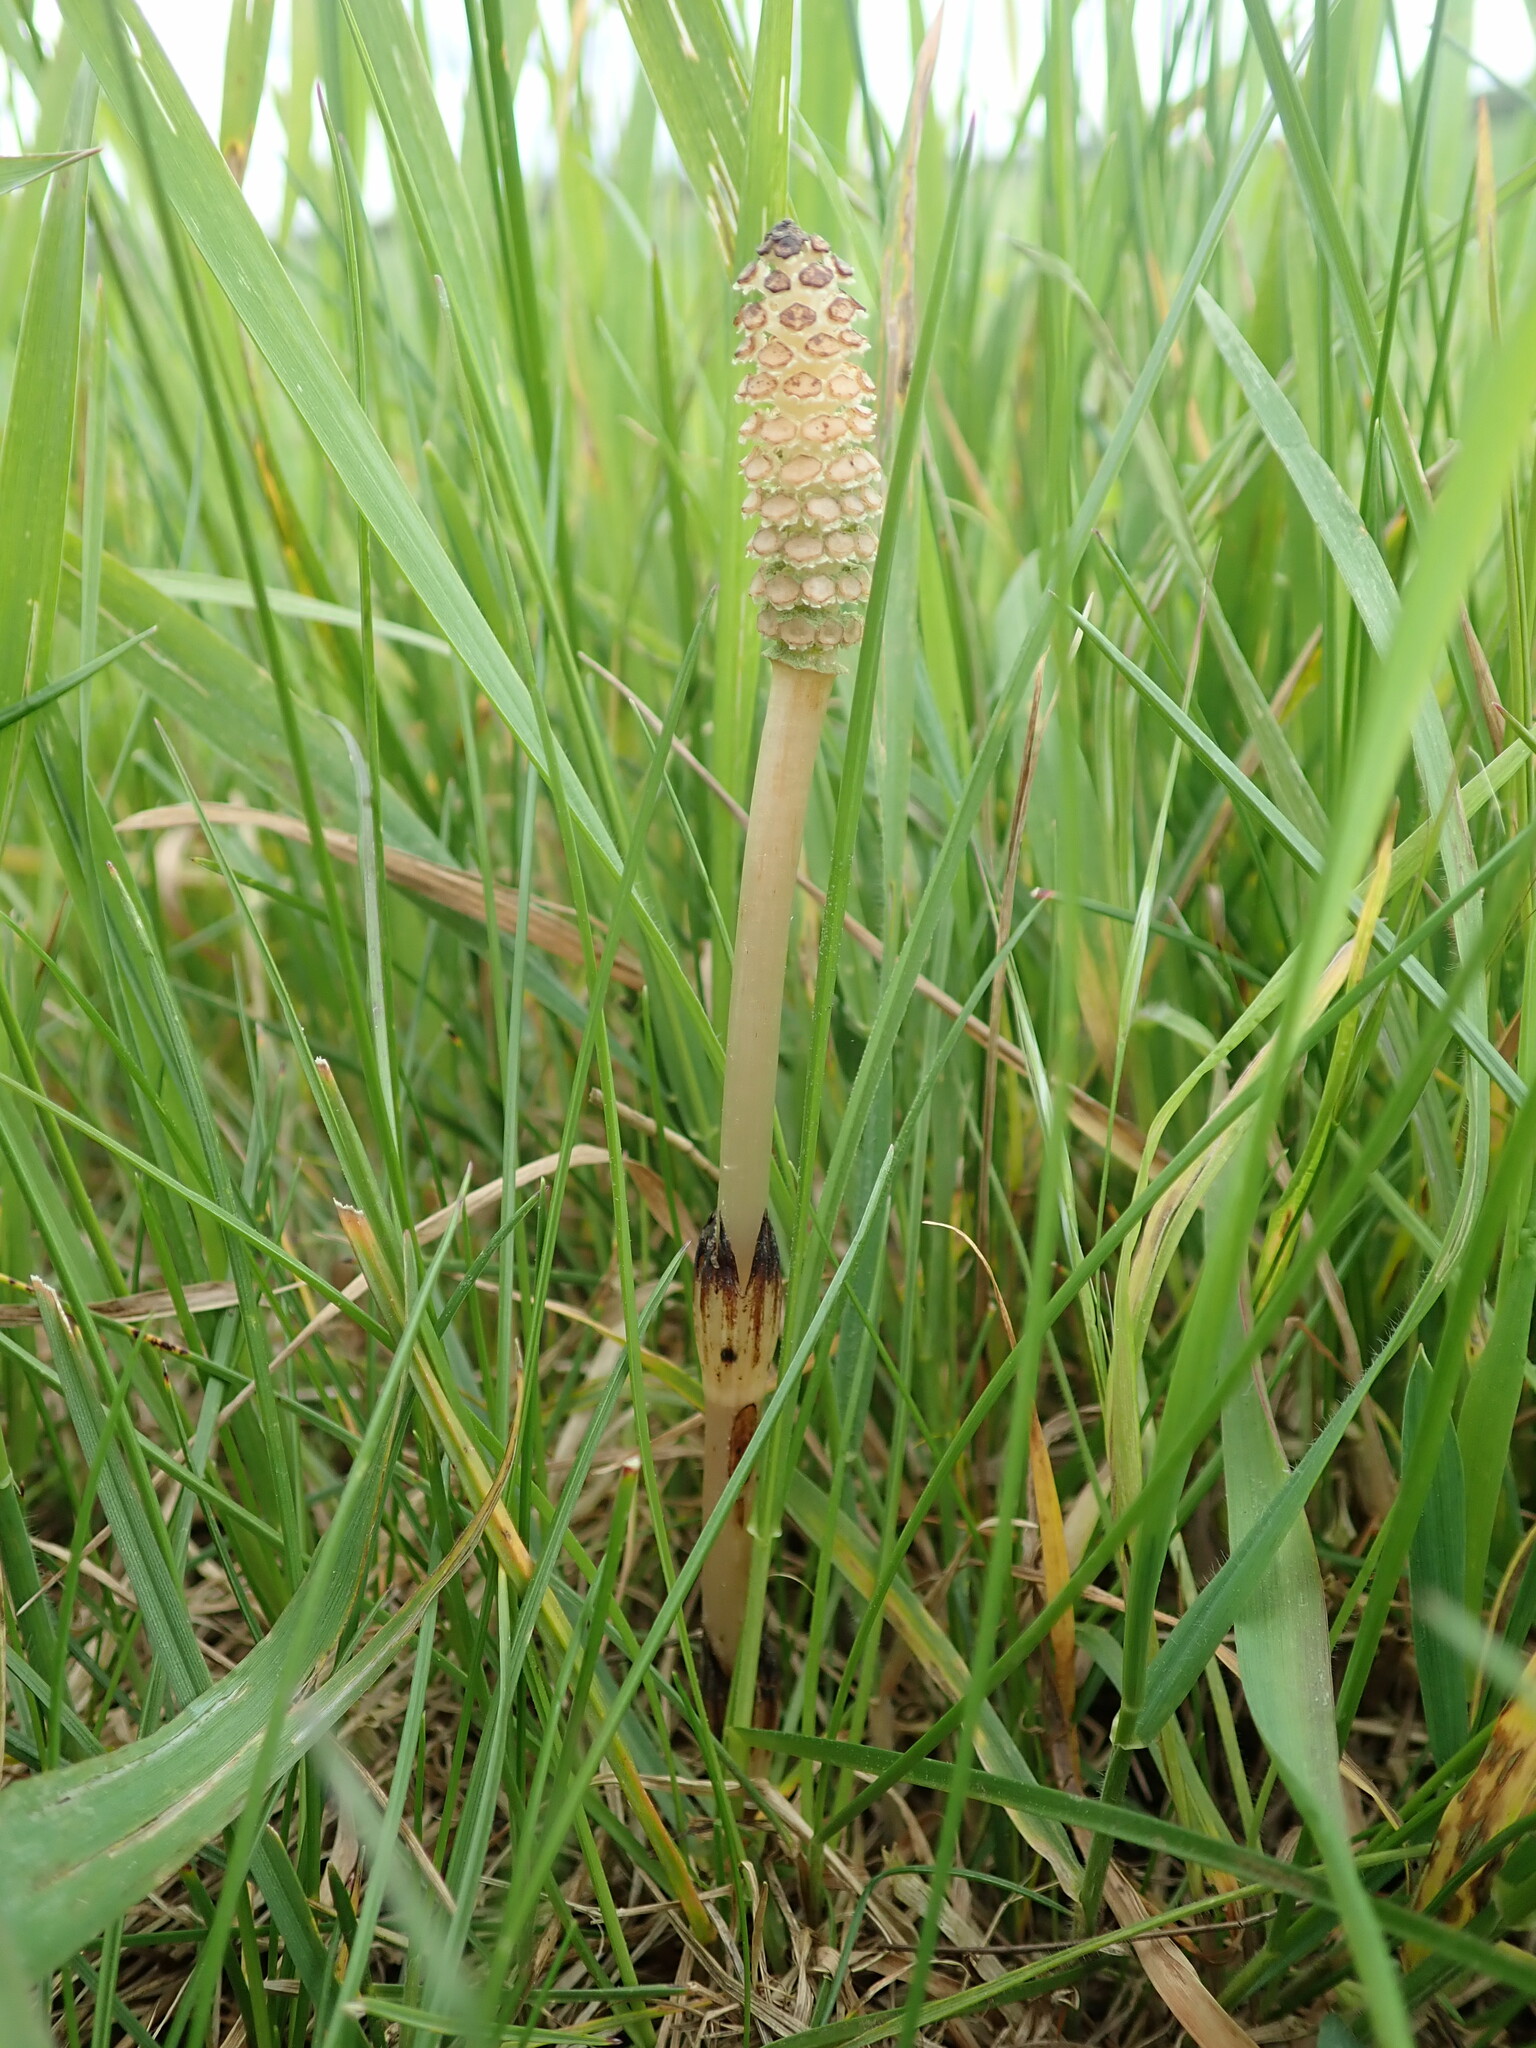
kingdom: Plantae
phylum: Tracheophyta
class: Polypodiopsida
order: Equisetales
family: Equisetaceae
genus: Equisetum
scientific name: Equisetum arvense
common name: Field horsetail
